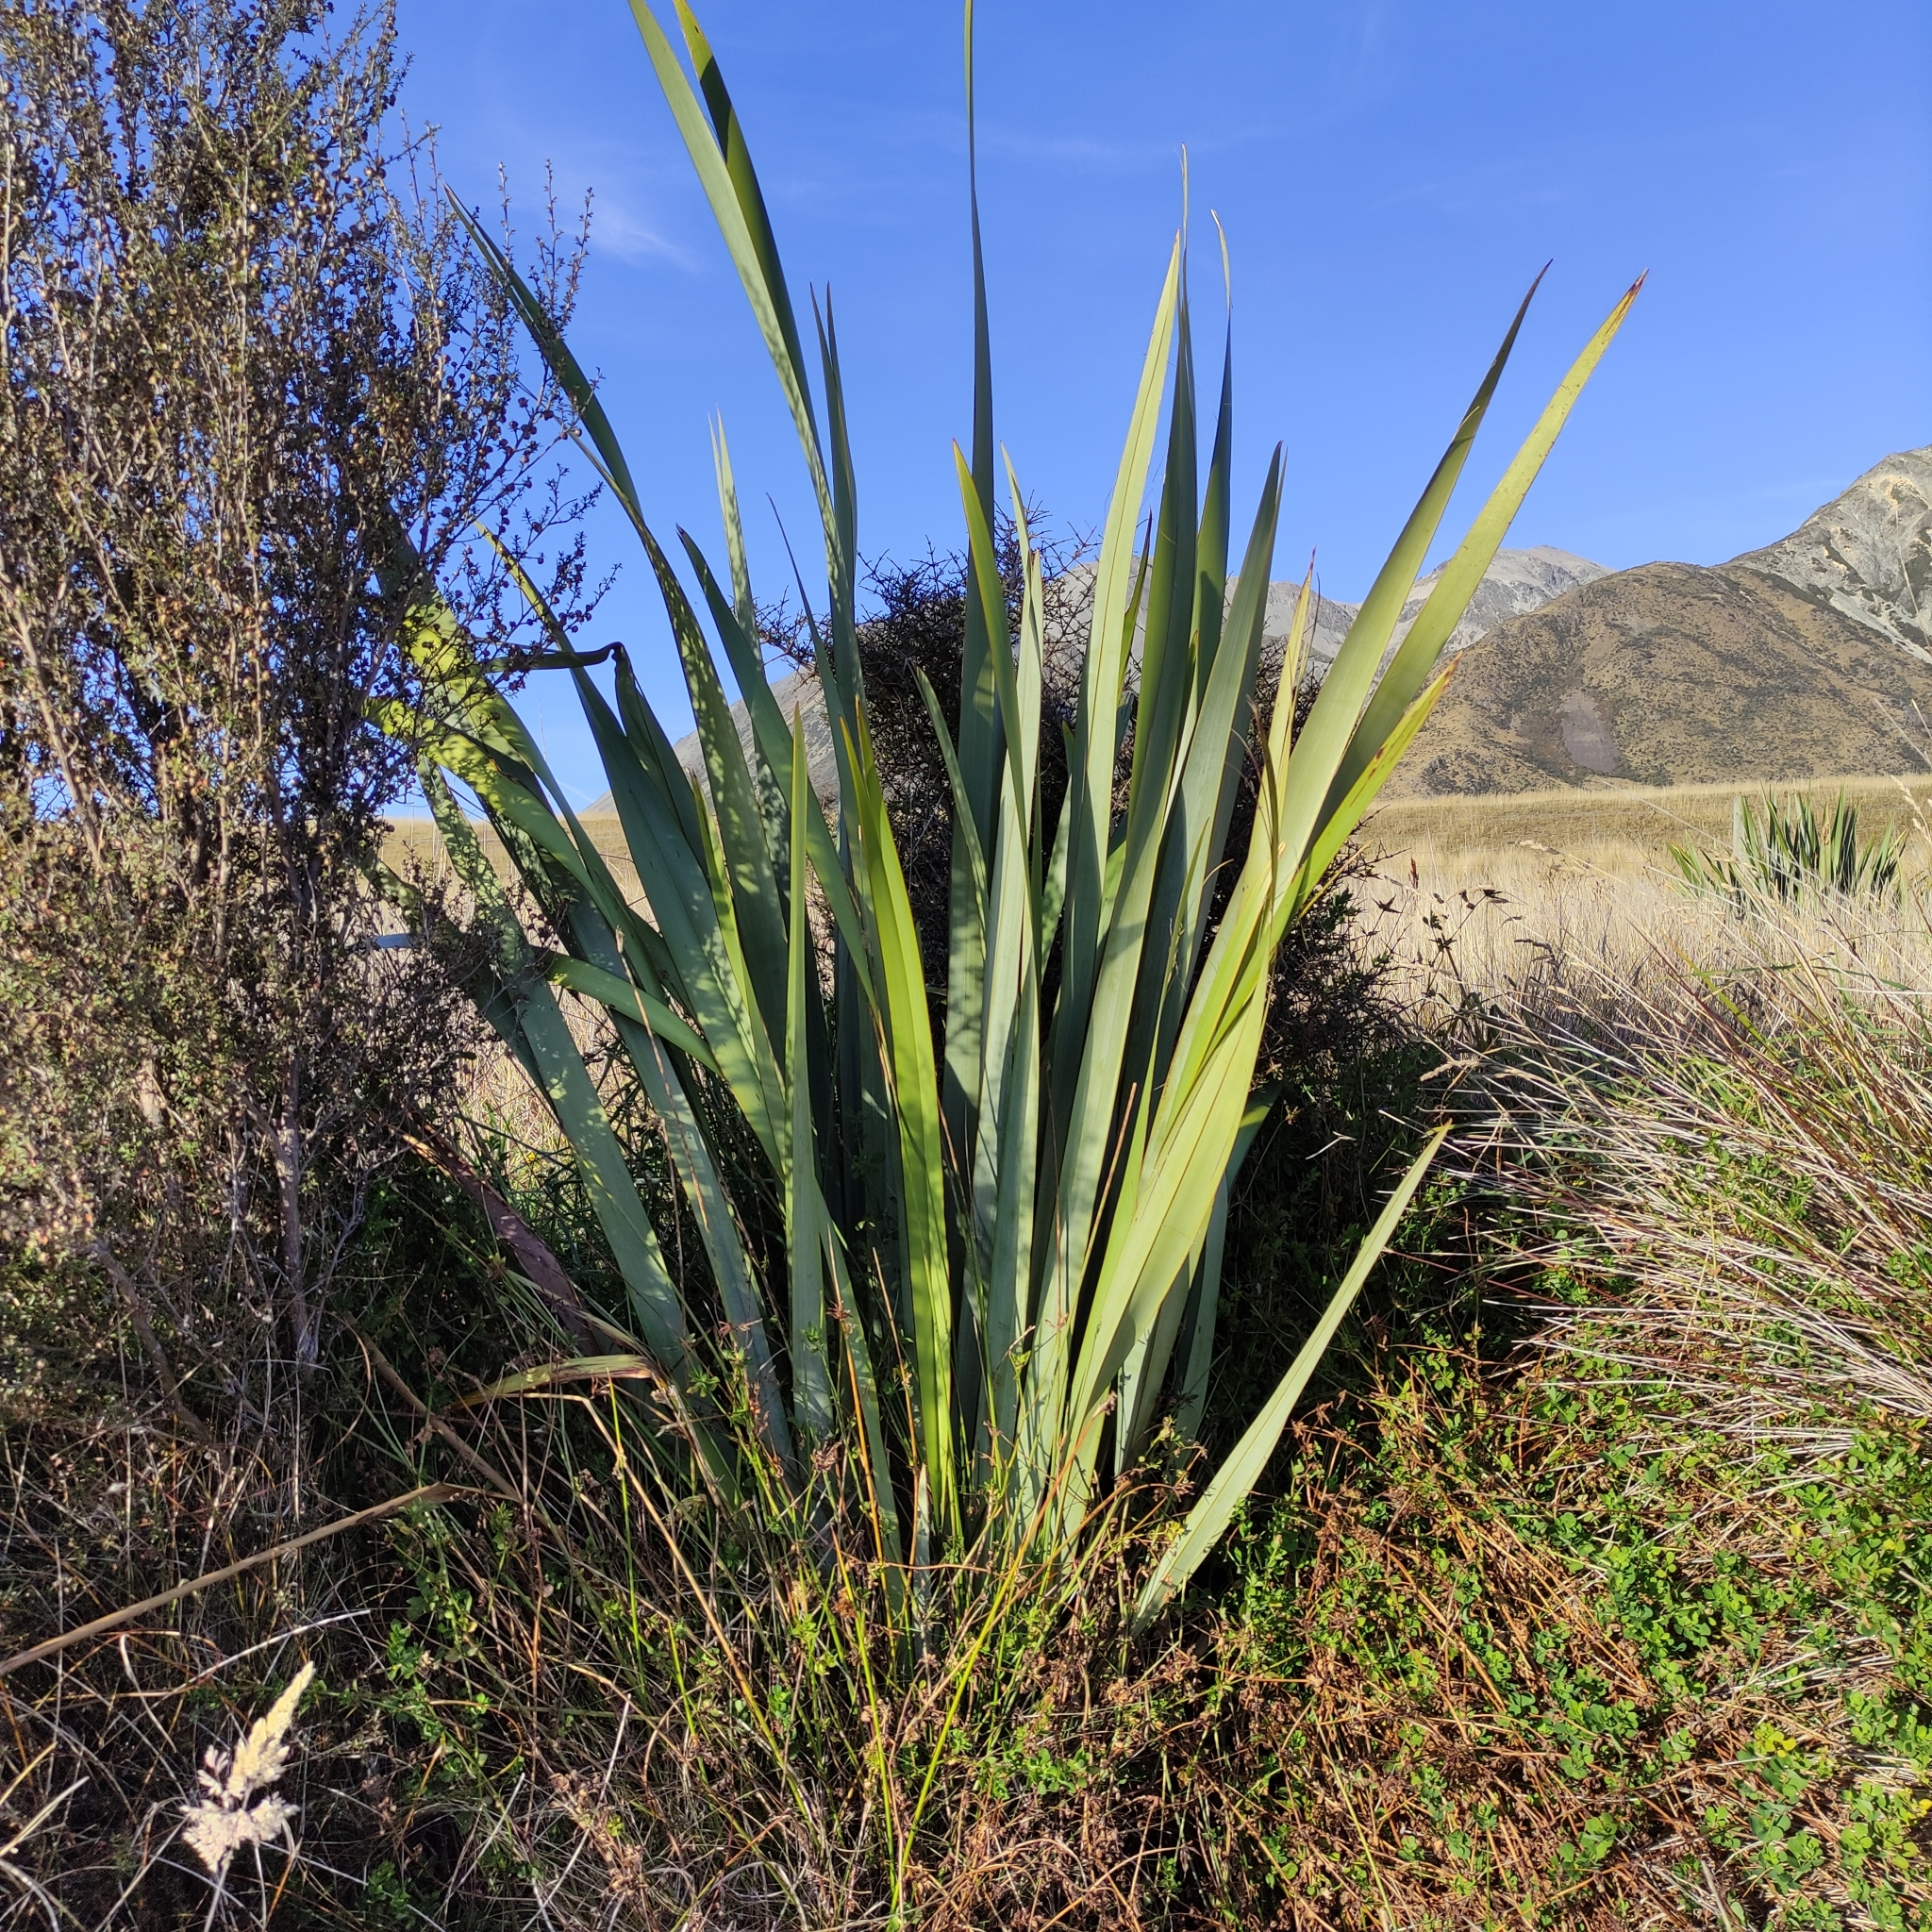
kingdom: Plantae
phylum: Tracheophyta
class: Liliopsida
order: Asparagales
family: Asphodelaceae
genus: Phormium
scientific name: Phormium tenax
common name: New zealand flax
